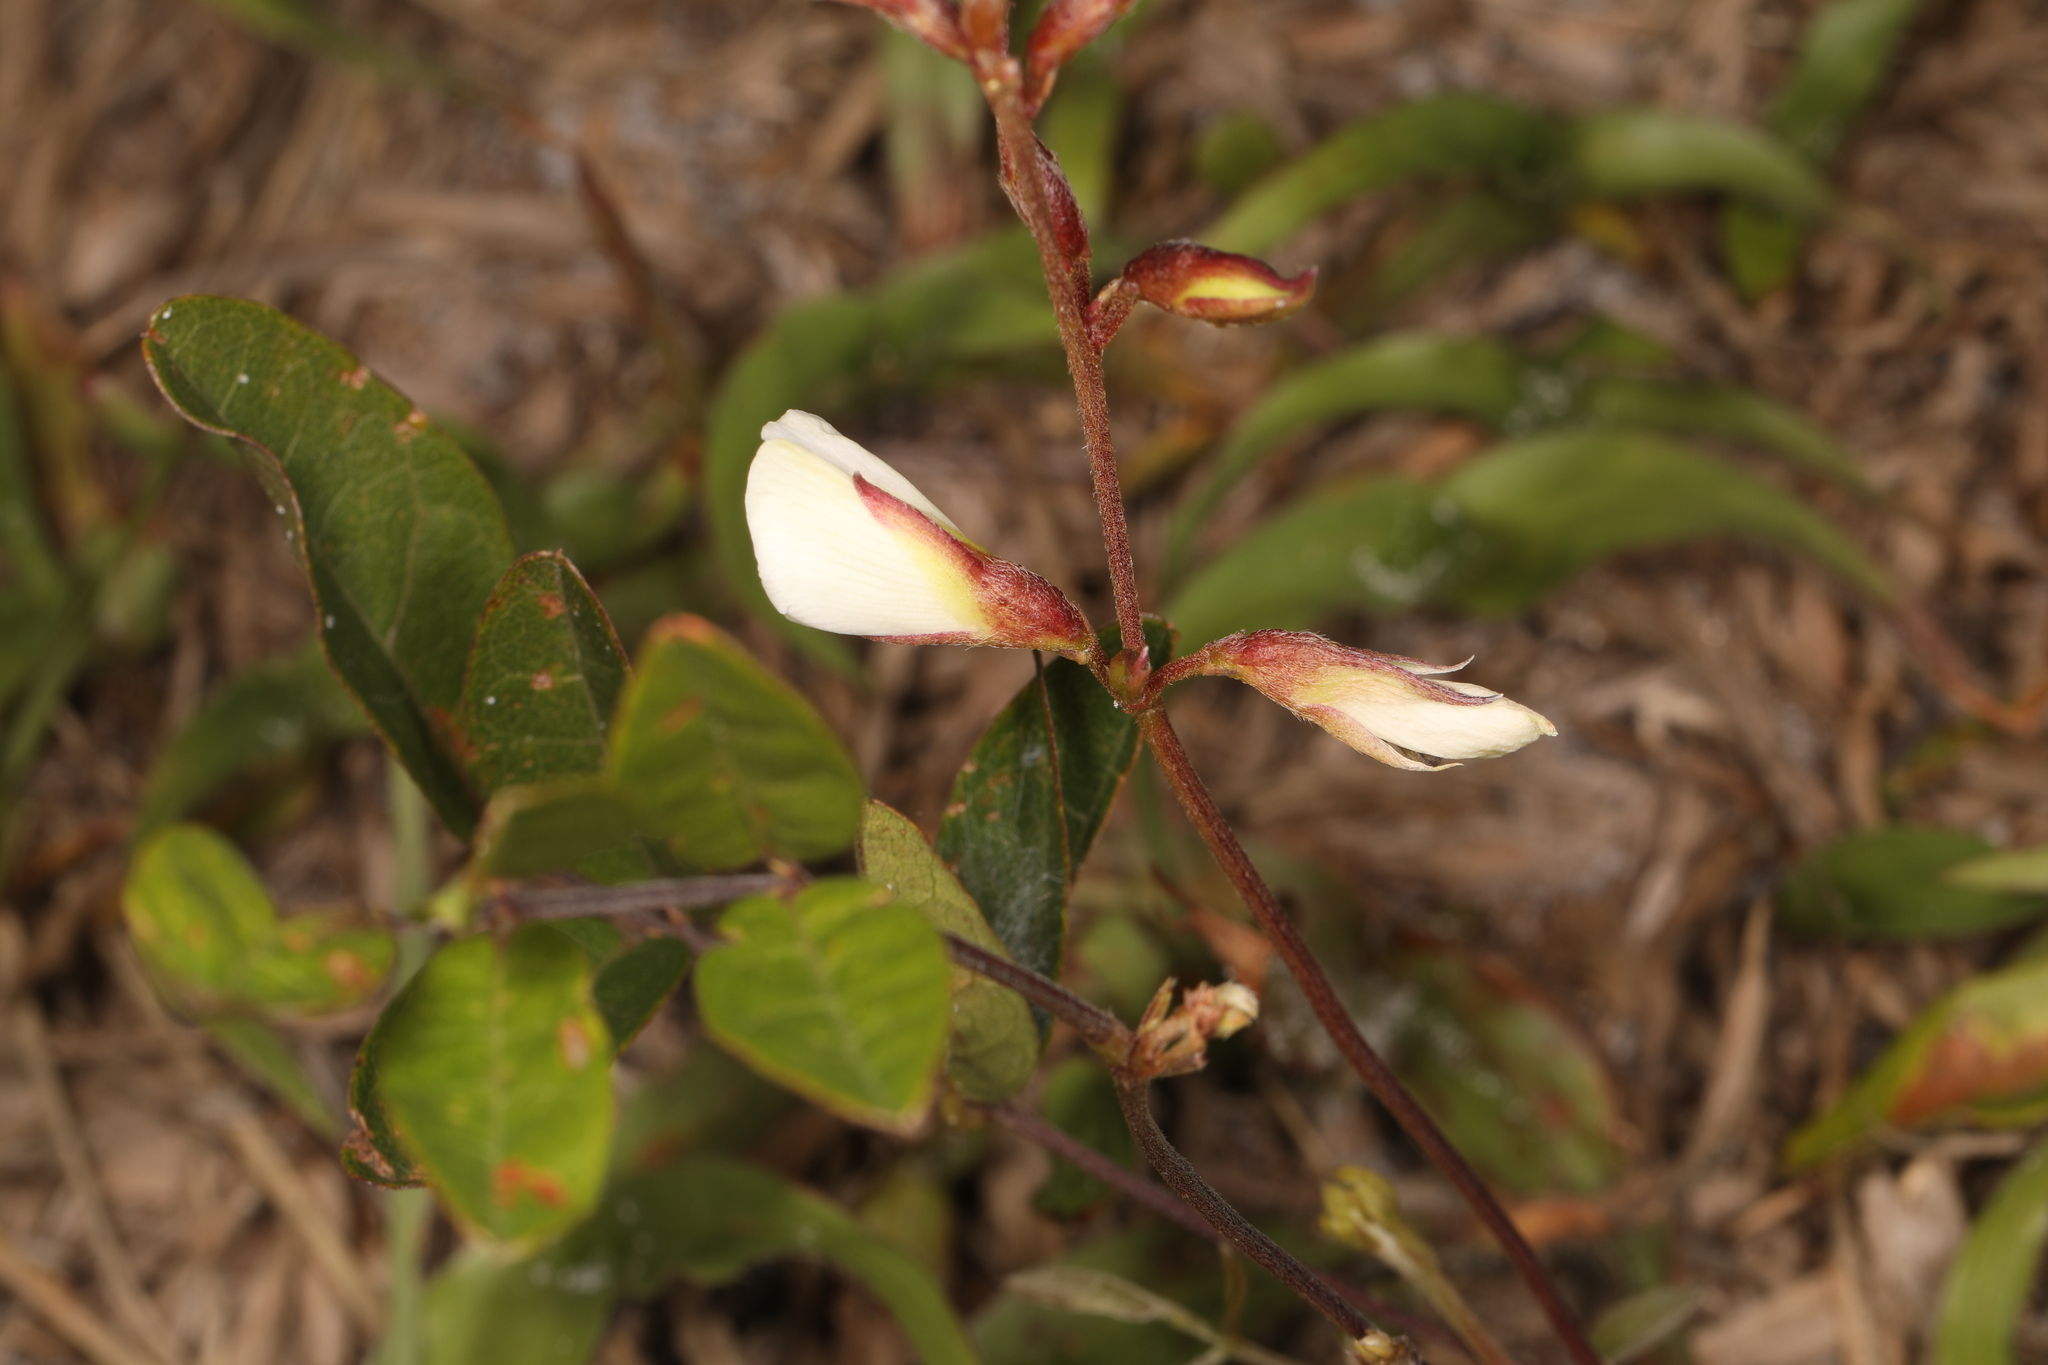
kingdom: Plantae
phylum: Tracheophyta
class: Magnoliopsida
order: Fabales
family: Fabaceae
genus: Galactia
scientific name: Galactia elliottii
